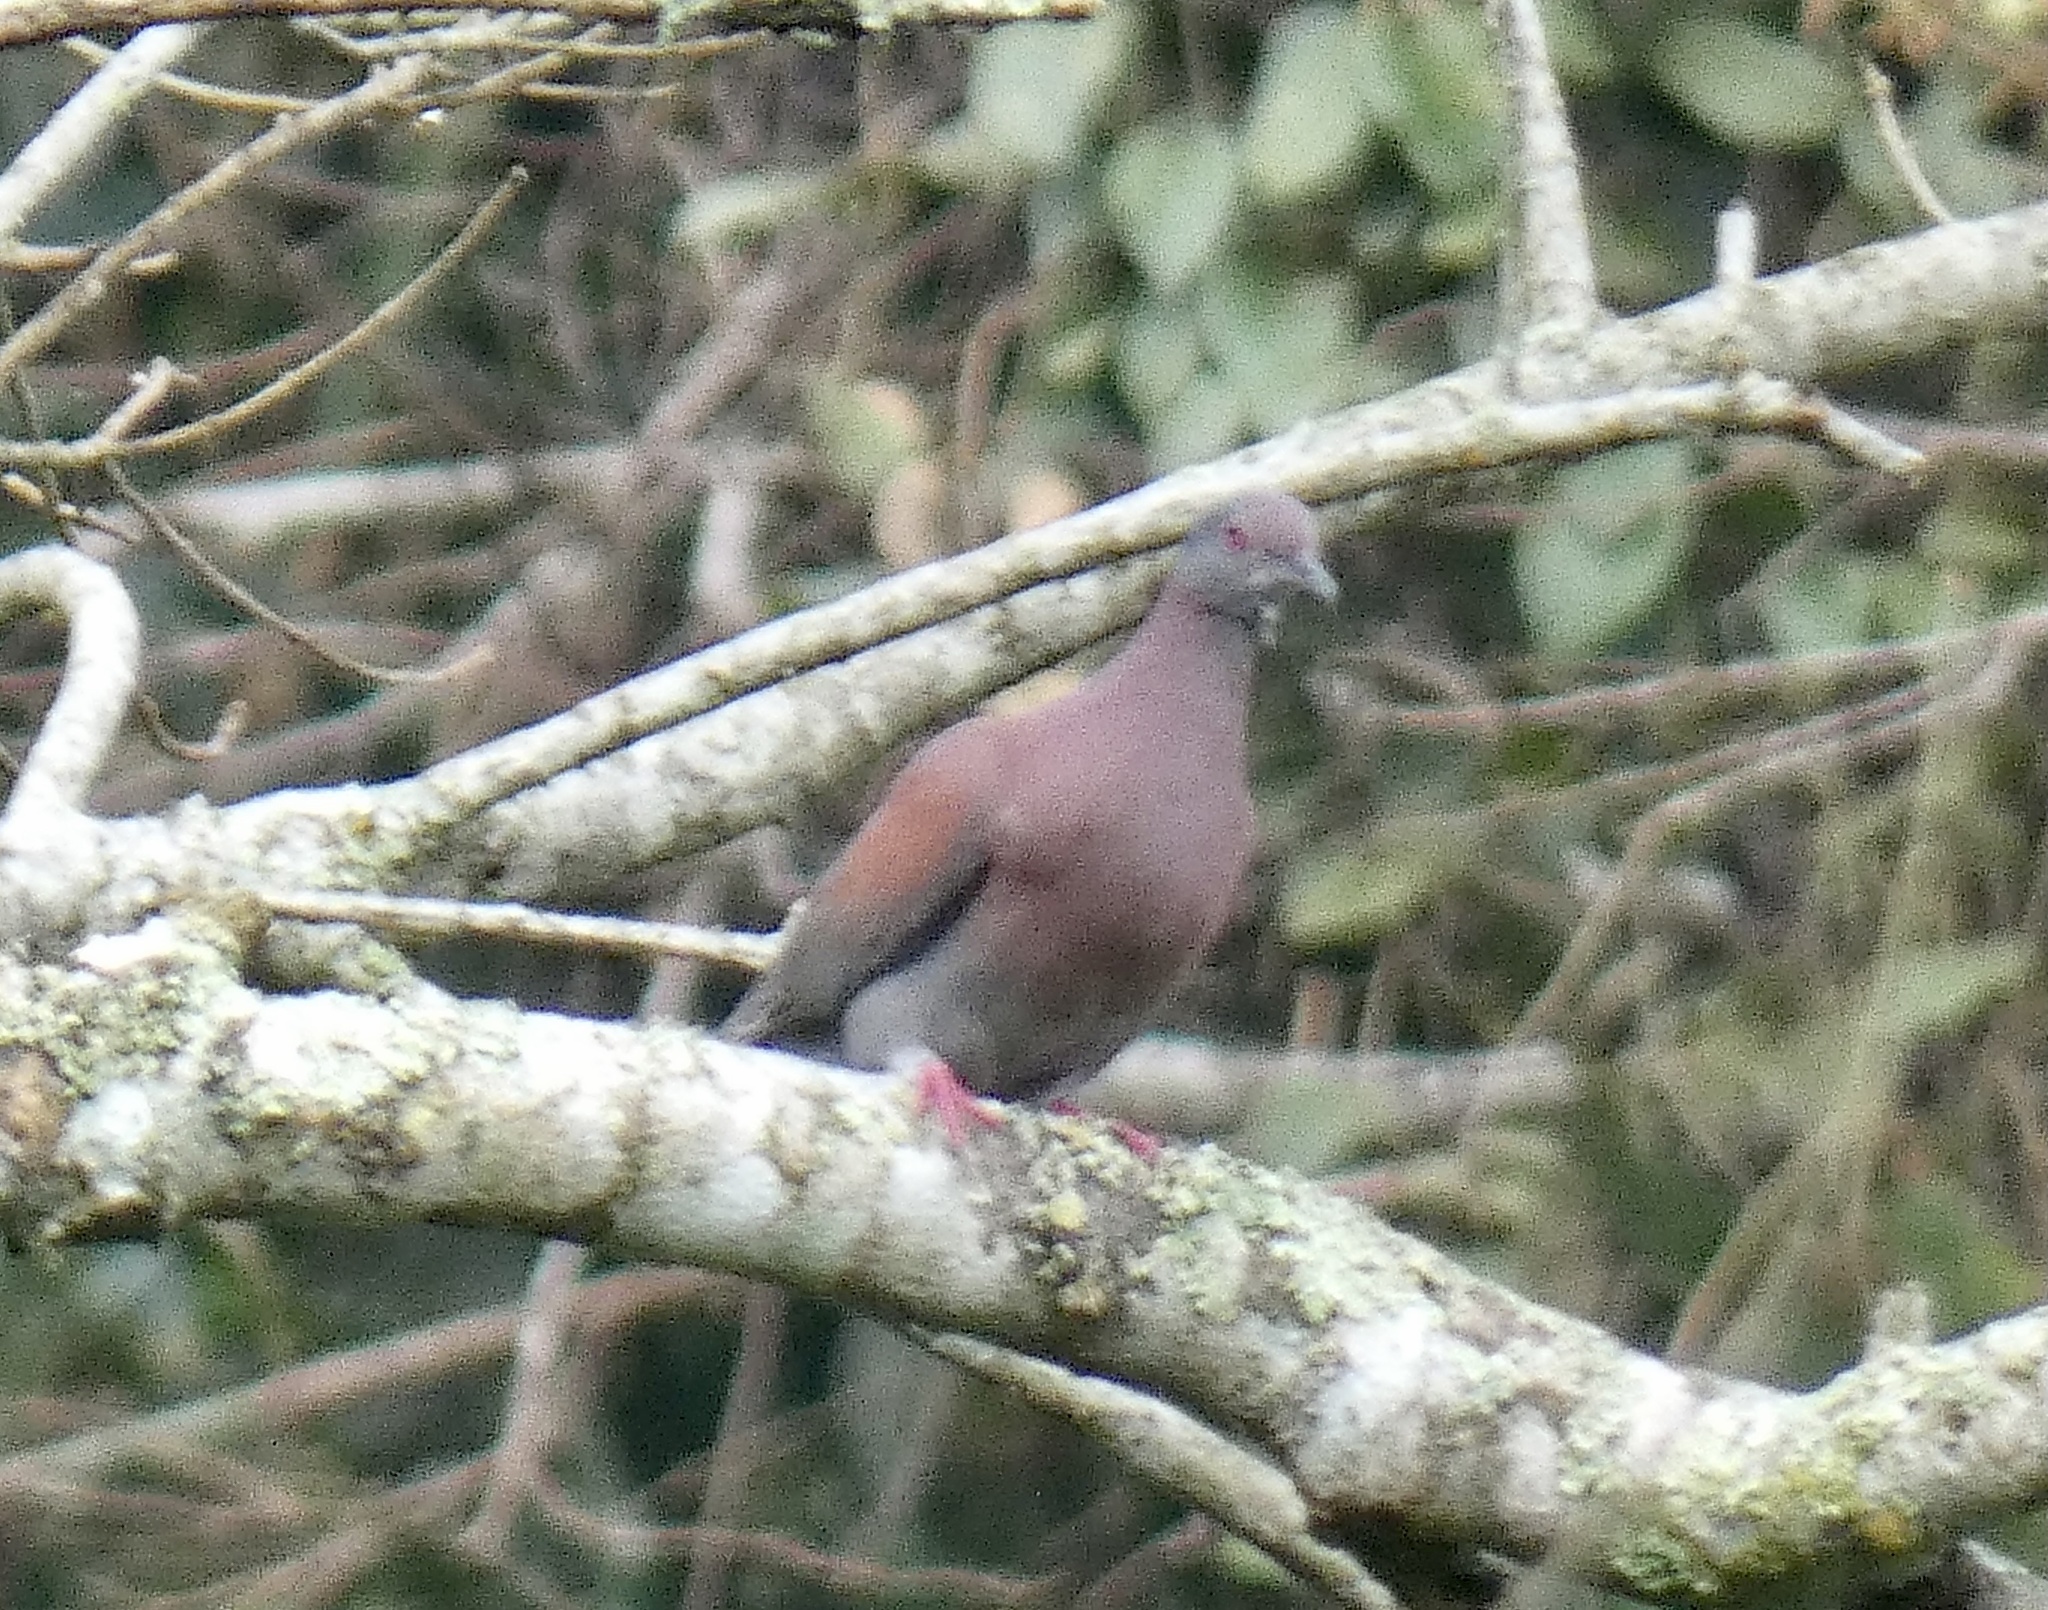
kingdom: Animalia
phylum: Chordata
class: Aves
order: Columbiformes
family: Columbidae
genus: Patagioenas
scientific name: Patagioenas cayennensis
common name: Pale-vented pigeon
